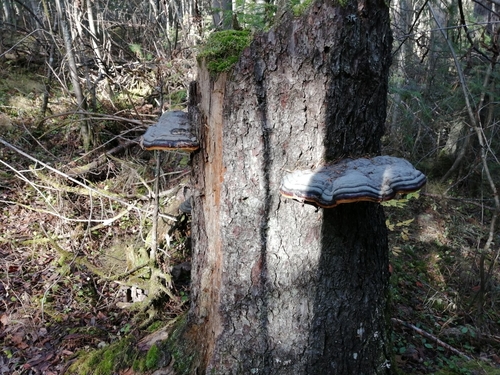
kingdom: Fungi
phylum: Basidiomycota
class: Agaricomycetes
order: Polyporales
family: Fomitopsidaceae
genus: Fomitopsis
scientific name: Fomitopsis pinicola
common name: Red-belted bracket
